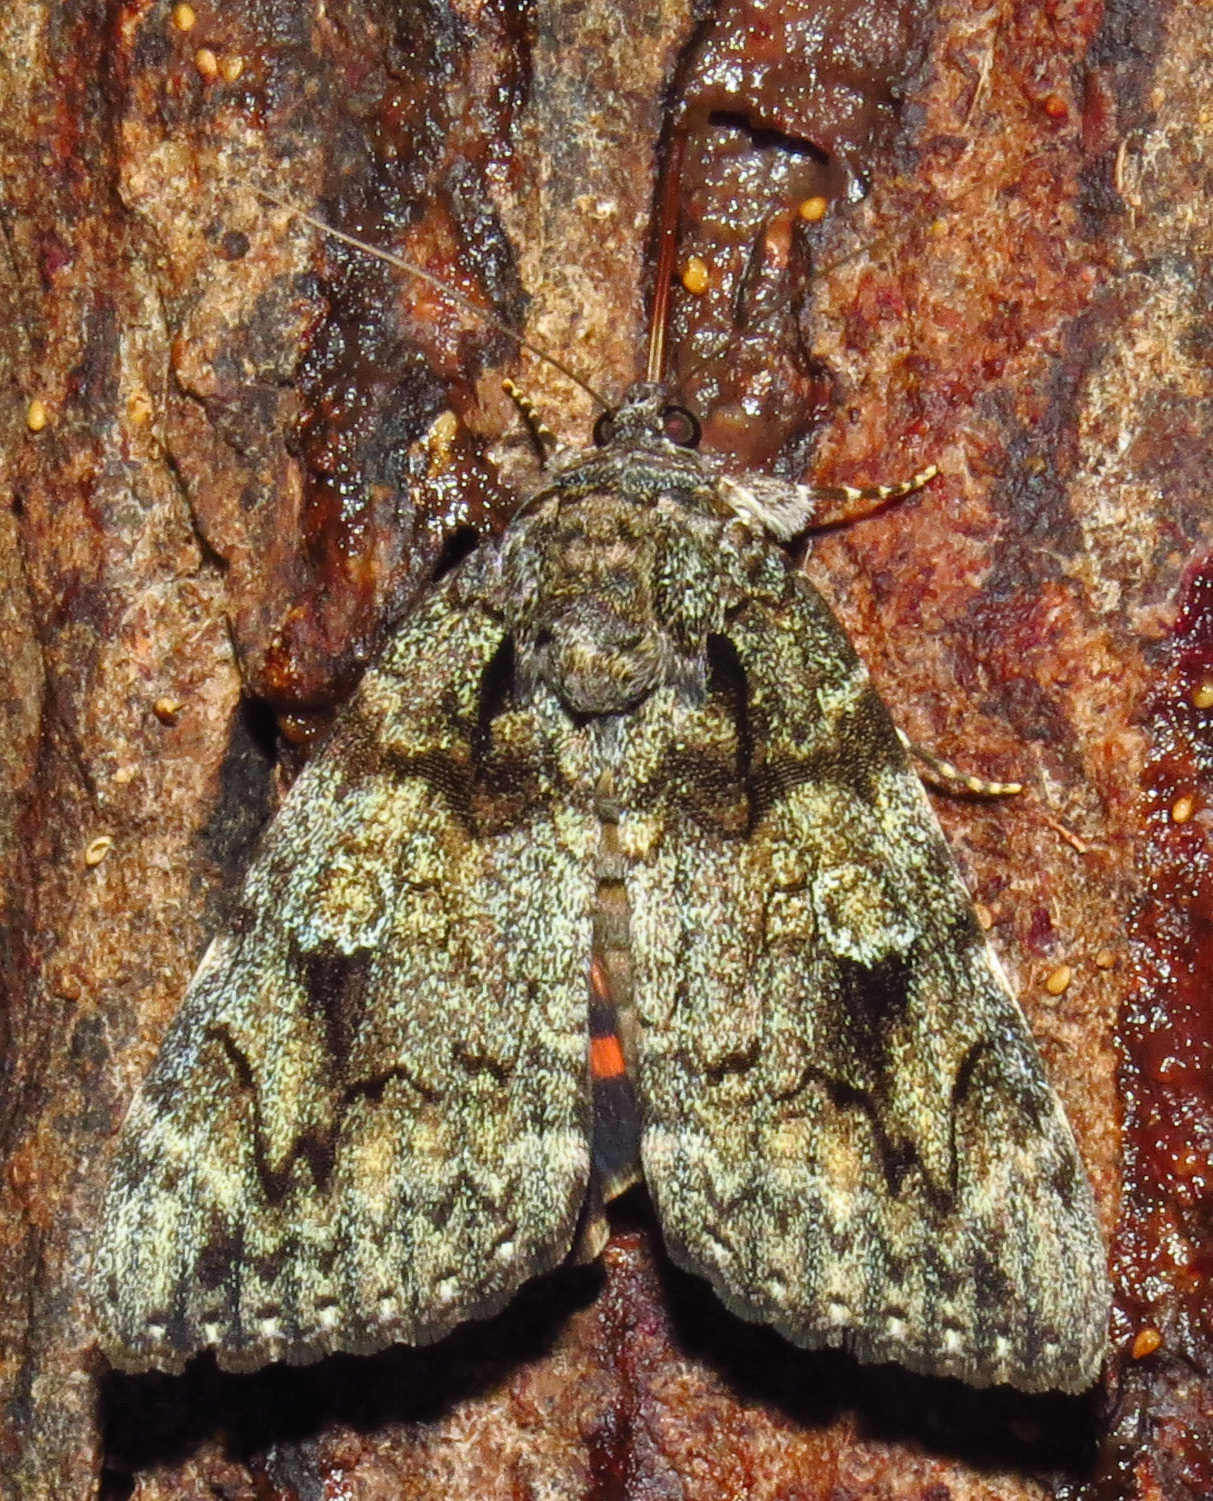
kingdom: Animalia
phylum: Arthropoda
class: Insecta
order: Lepidoptera
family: Erebidae
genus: Catocala
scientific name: Catocala ilia
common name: Ilia underwing
